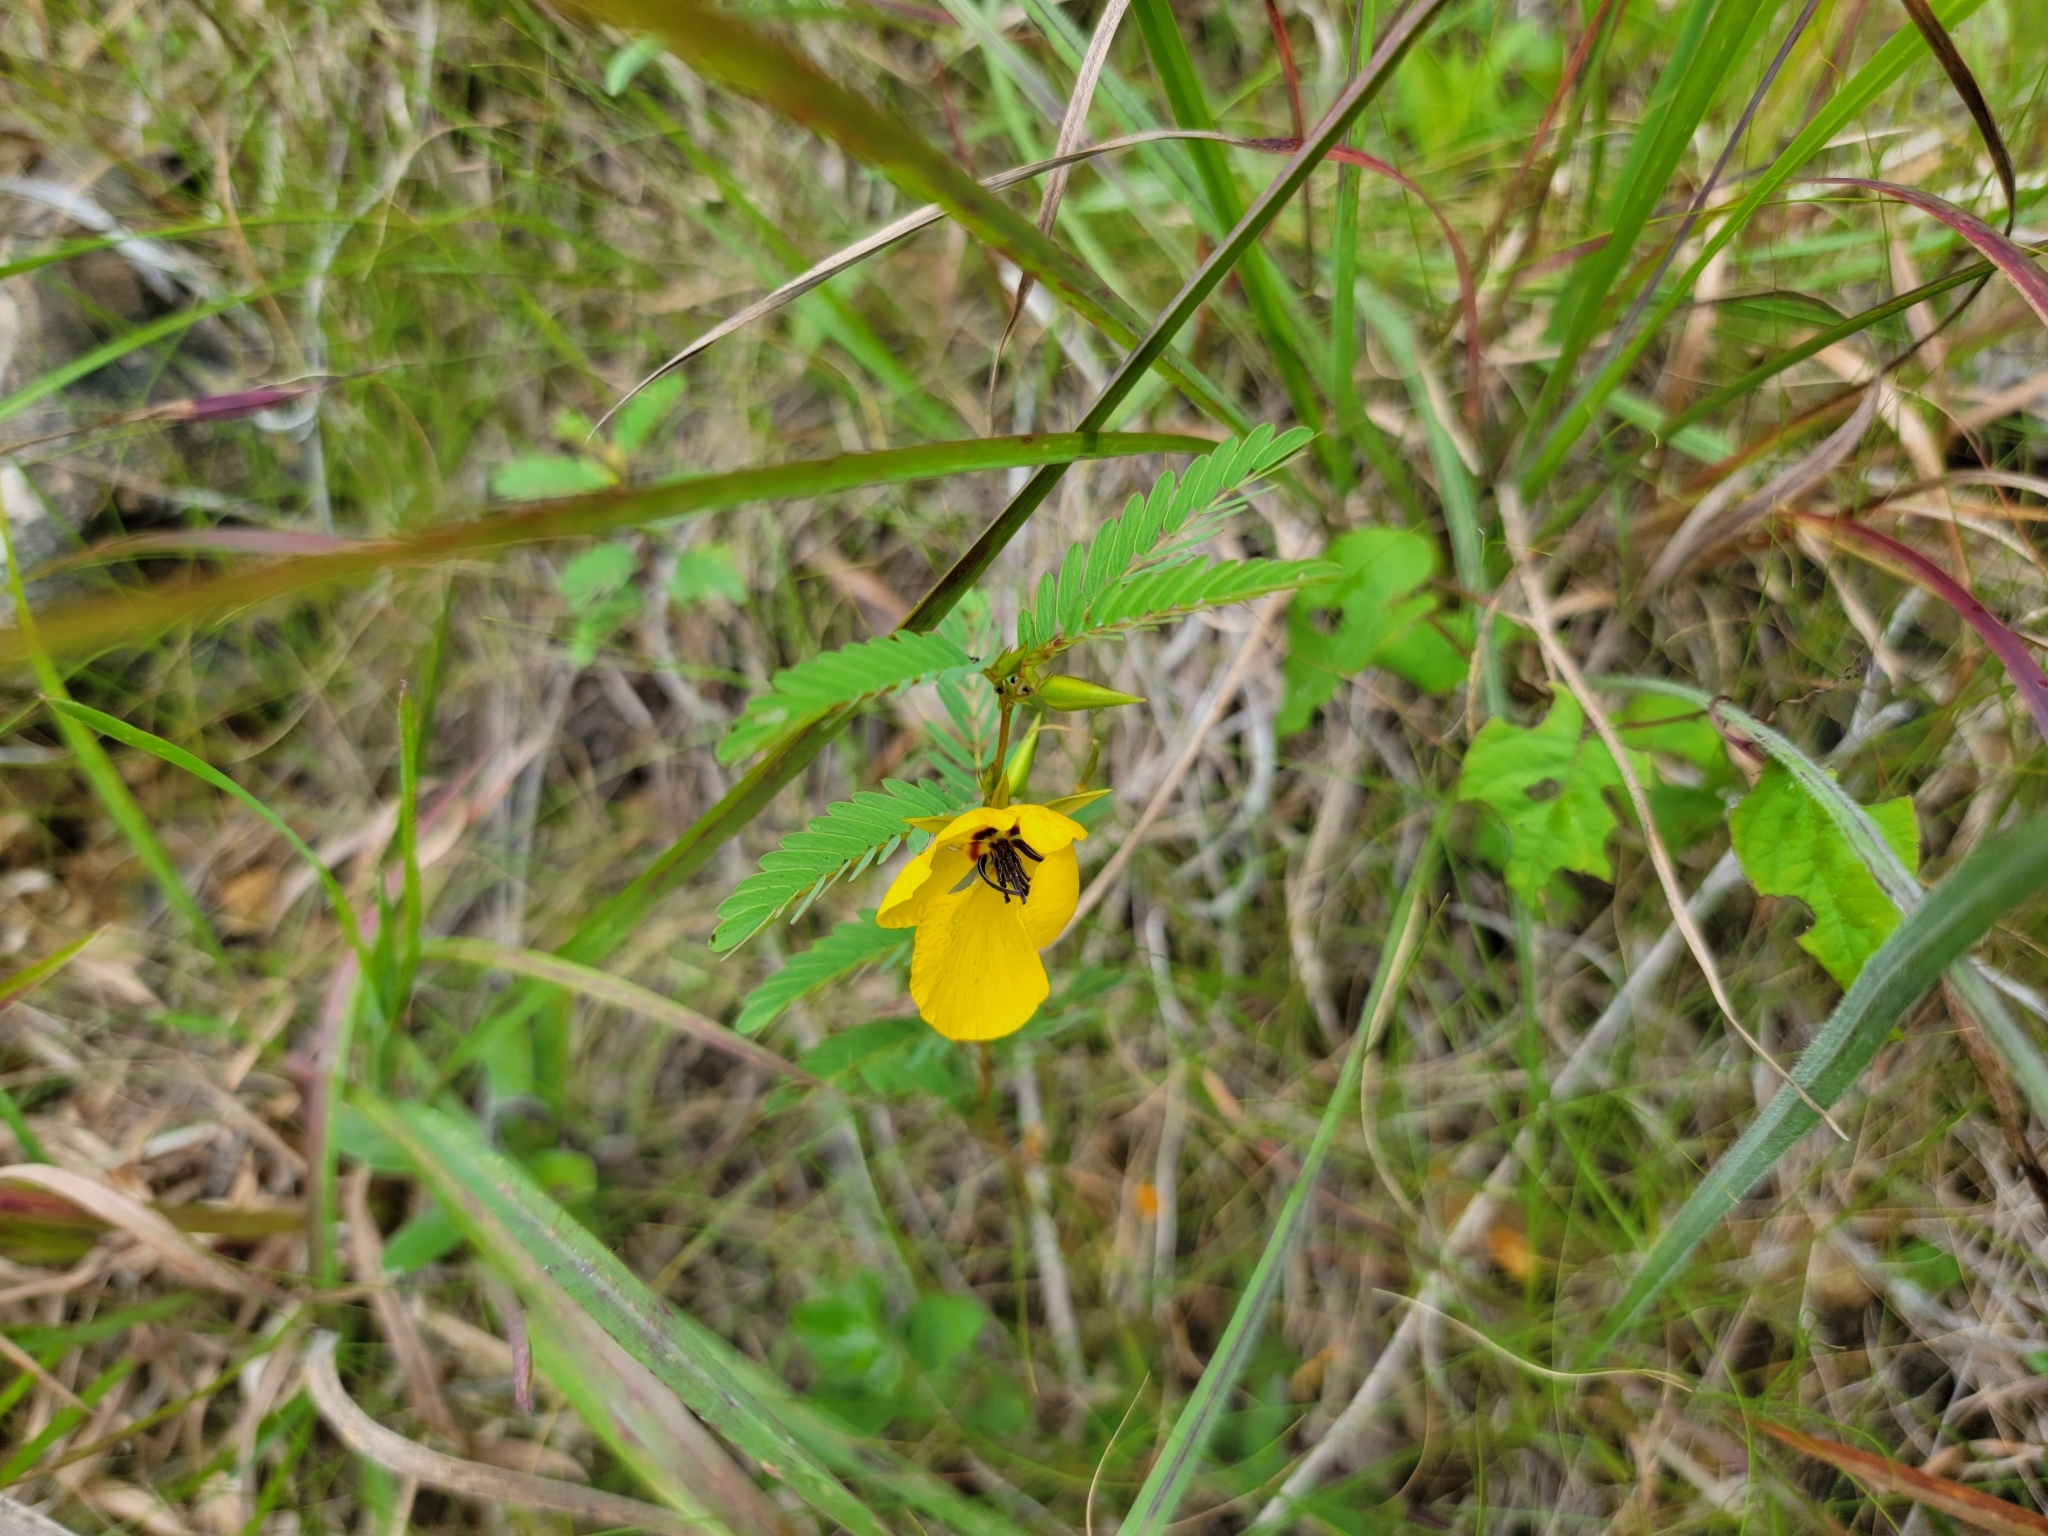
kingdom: Plantae
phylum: Tracheophyta
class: Magnoliopsida
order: Fabales
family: Fabaceae
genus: Chamaecrista
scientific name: Chamaecrista fasciculata
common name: Golden cassia
